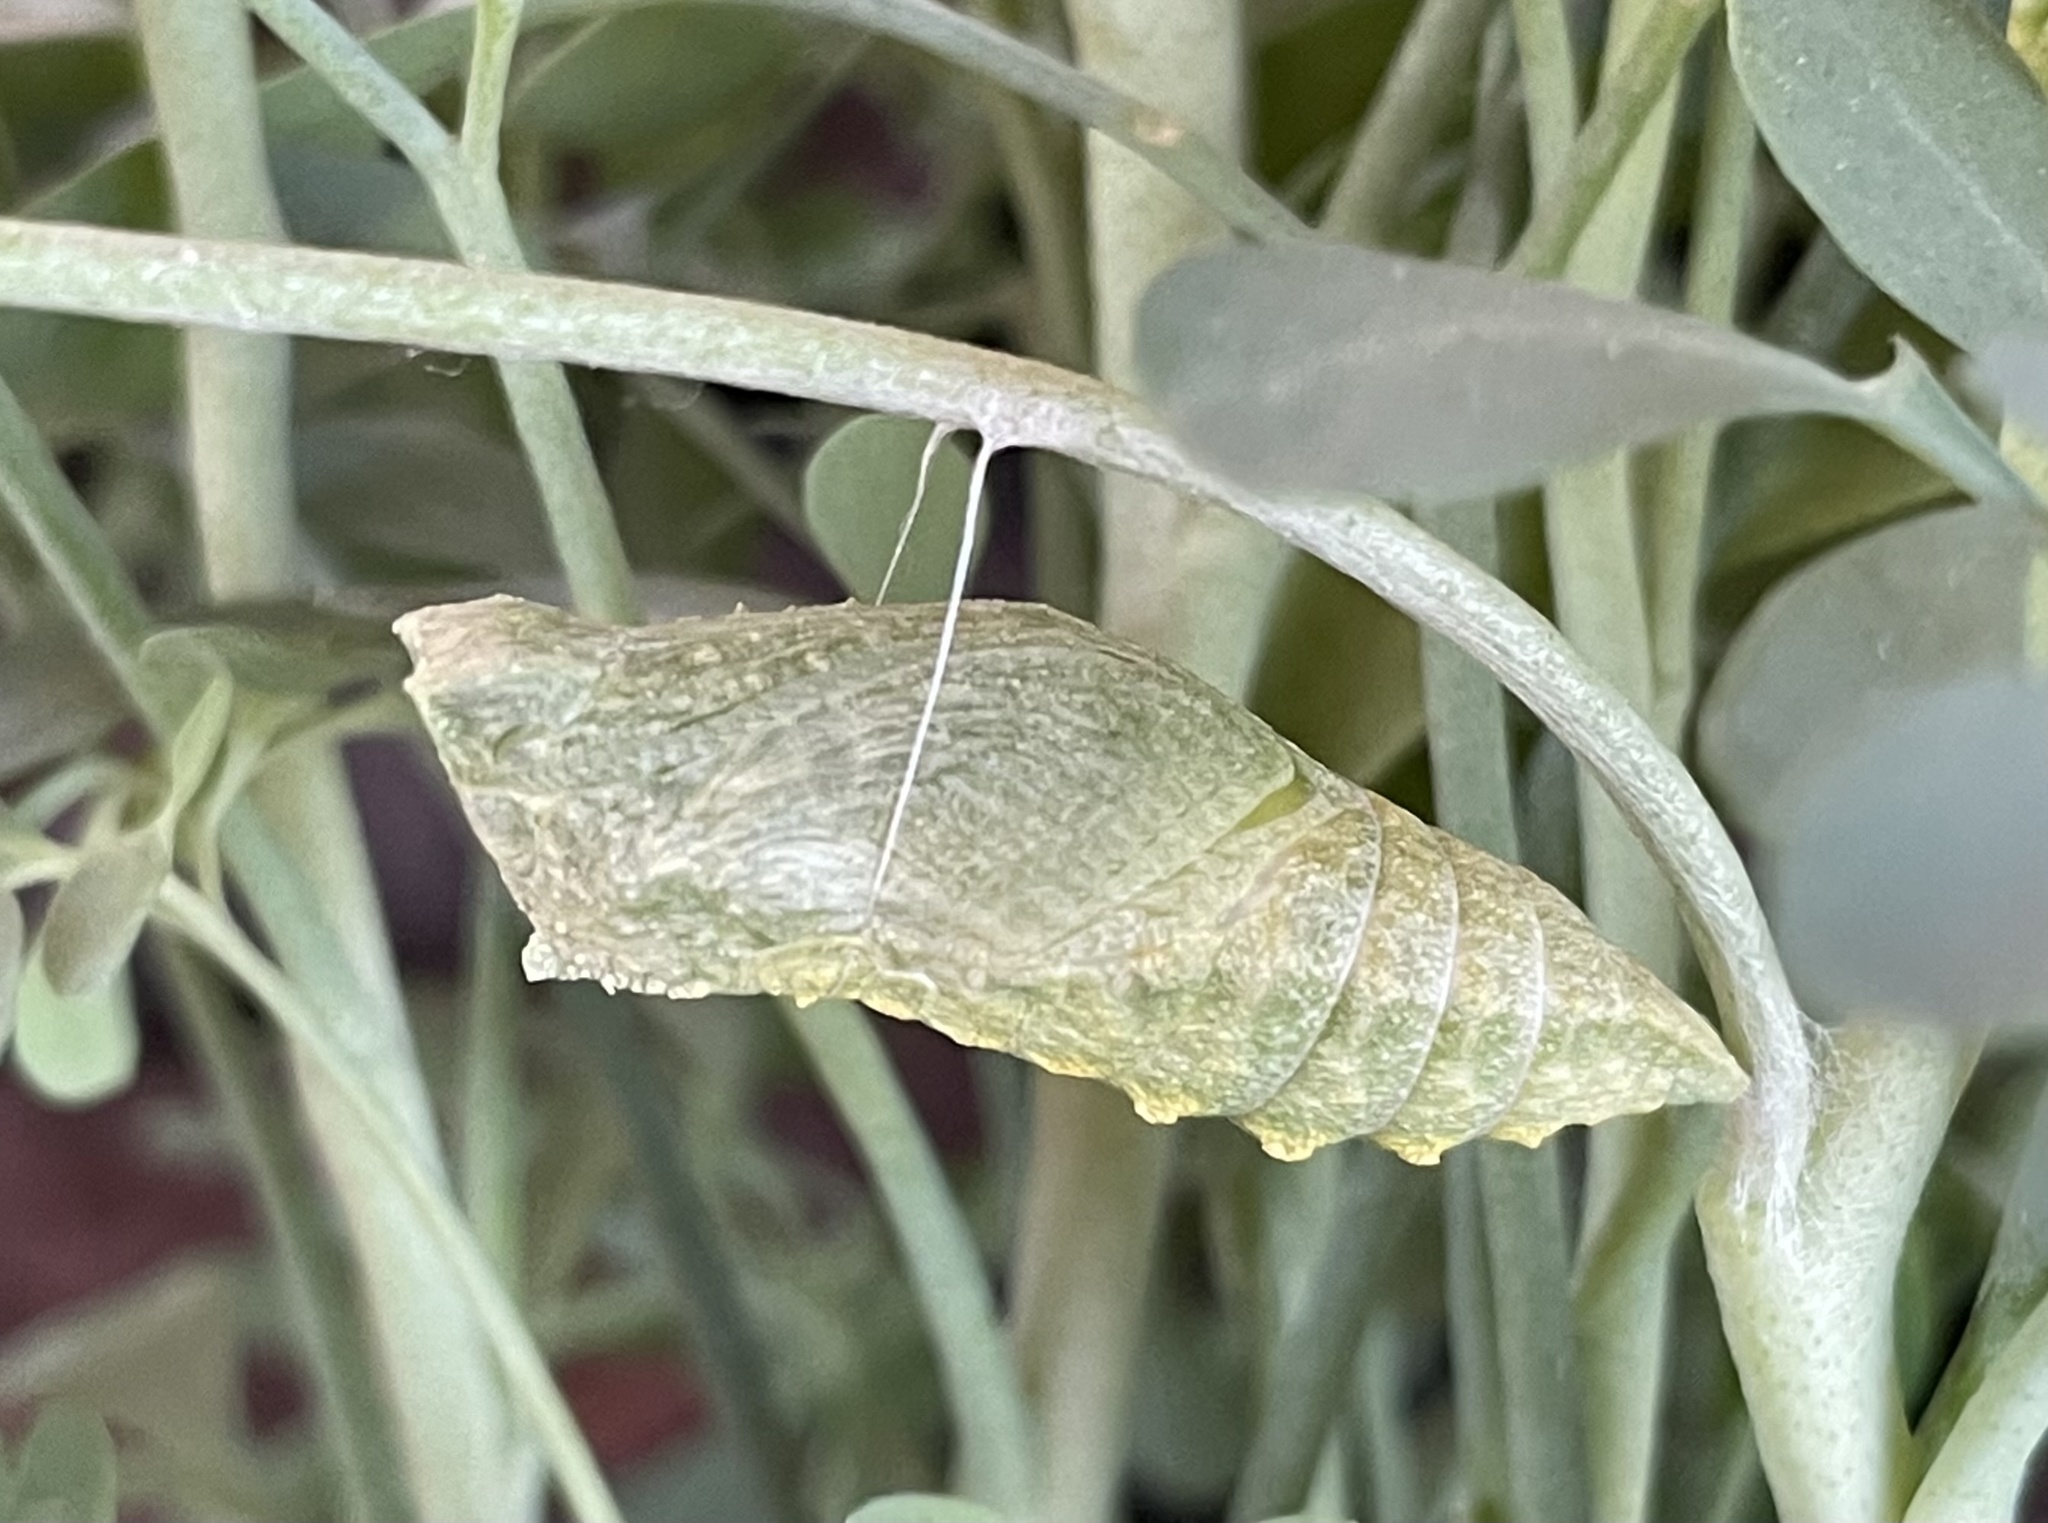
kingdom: Animalia
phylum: Arthropoda
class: Insecta
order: Lepidoptera
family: Papilionidae
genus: Papilio
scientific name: Papilio machaon
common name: Swallowtail
